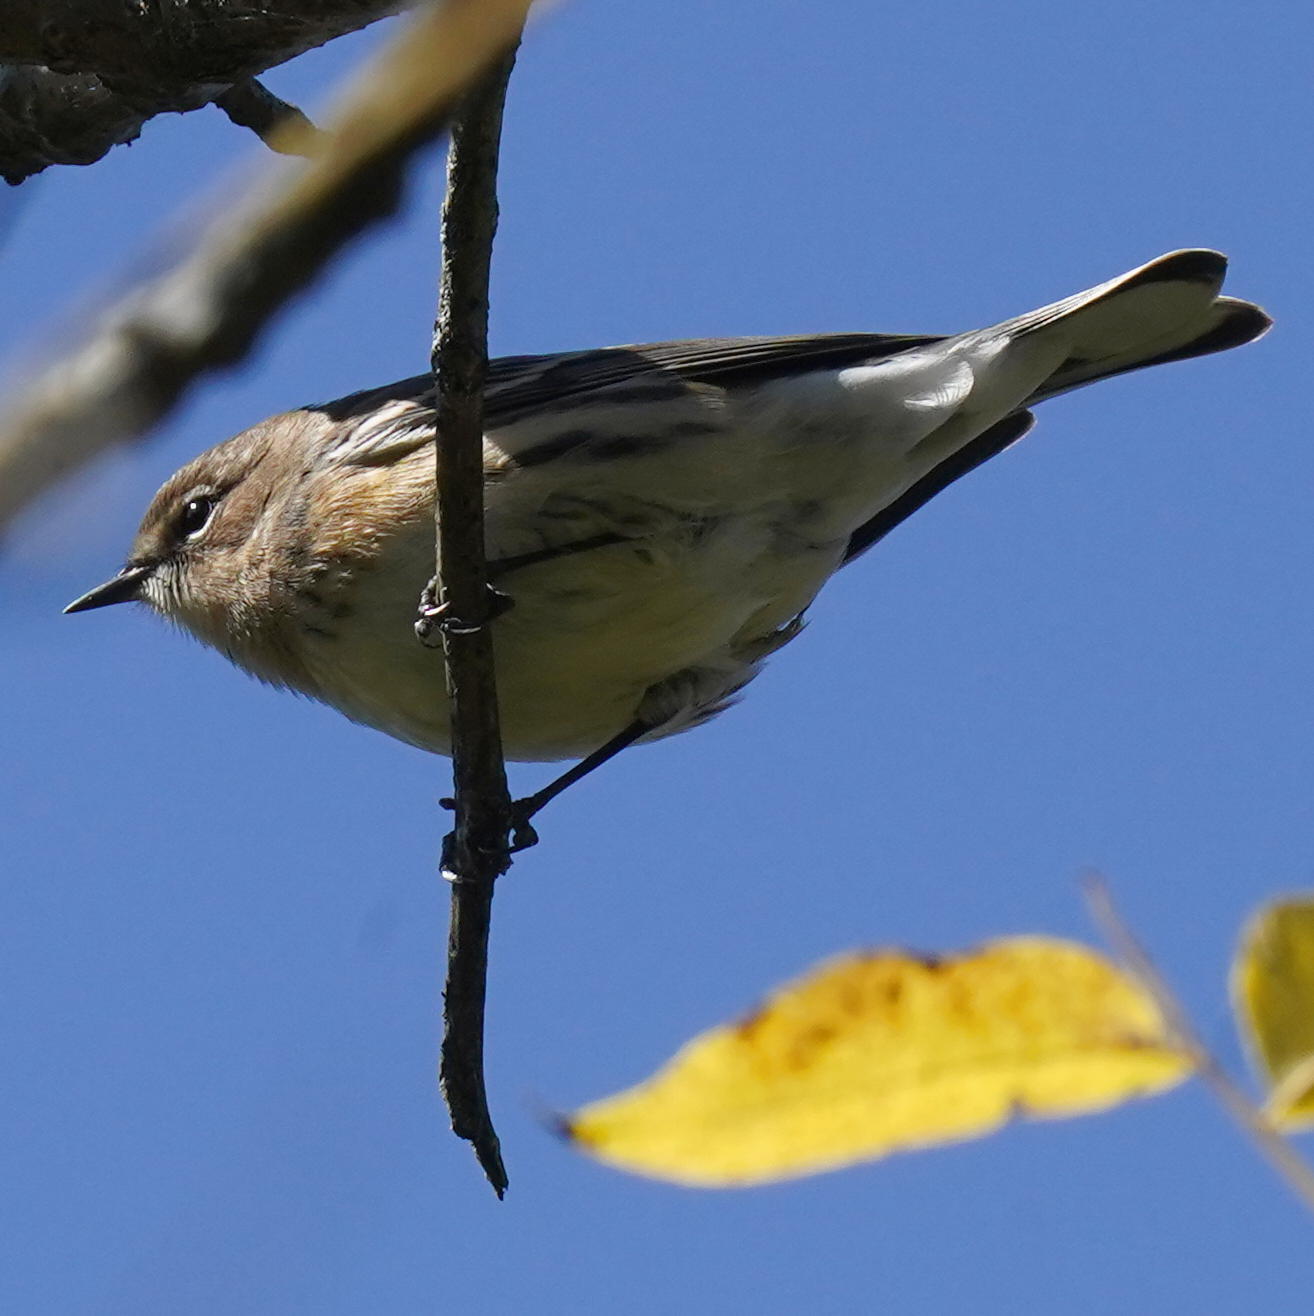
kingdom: Animalia
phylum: Chordata
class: Aves
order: Passeriformes
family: Parulidae
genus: Setophaga
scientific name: Setophaga coronata
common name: Myrtle warbler
